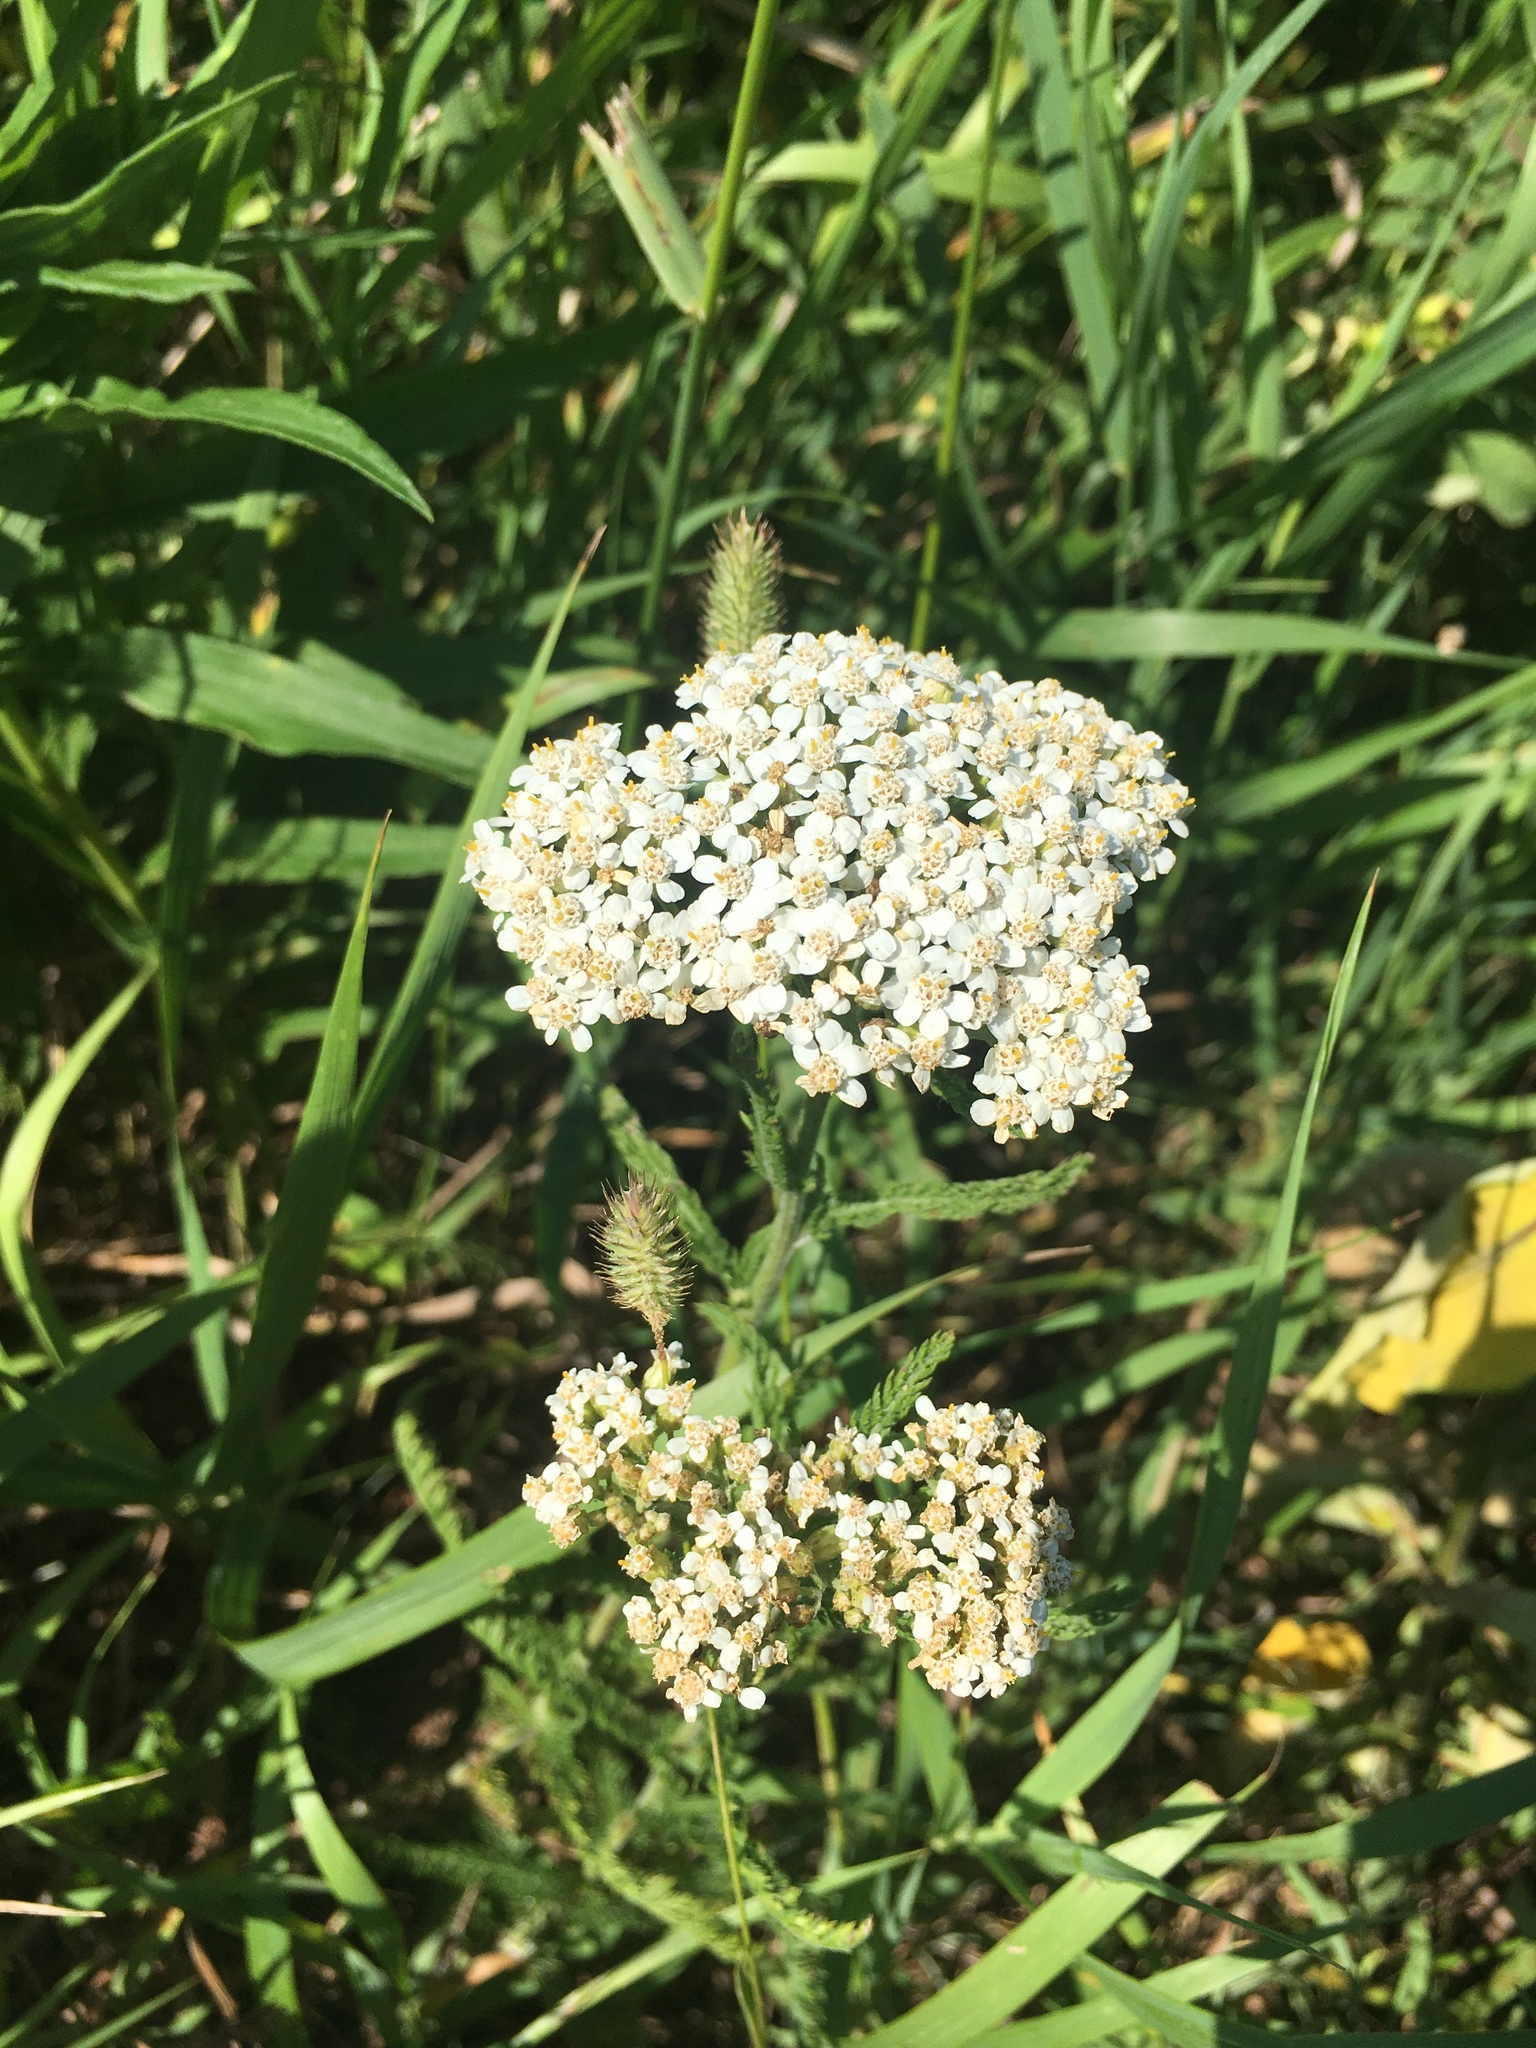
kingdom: Plantae
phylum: Tracheophyta
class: Magnoliopsida
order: Asterales
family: Asteraceae
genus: Achillea
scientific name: Achillea millefolium
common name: Yarrow
